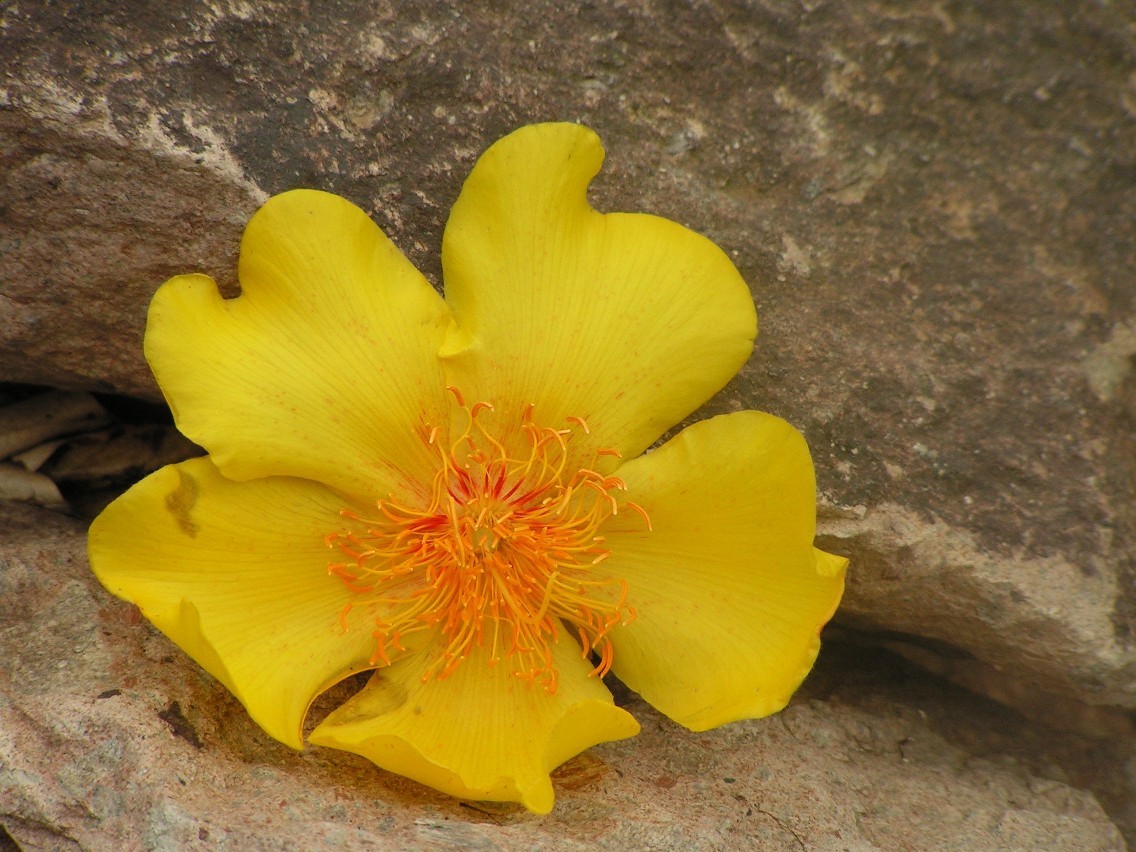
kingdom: Plantae
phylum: Tracheophyta
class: Magnoliopsida
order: Malvales
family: Cochlospermaceae
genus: Cochlospermum
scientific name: Cochlospermum vitifolium
